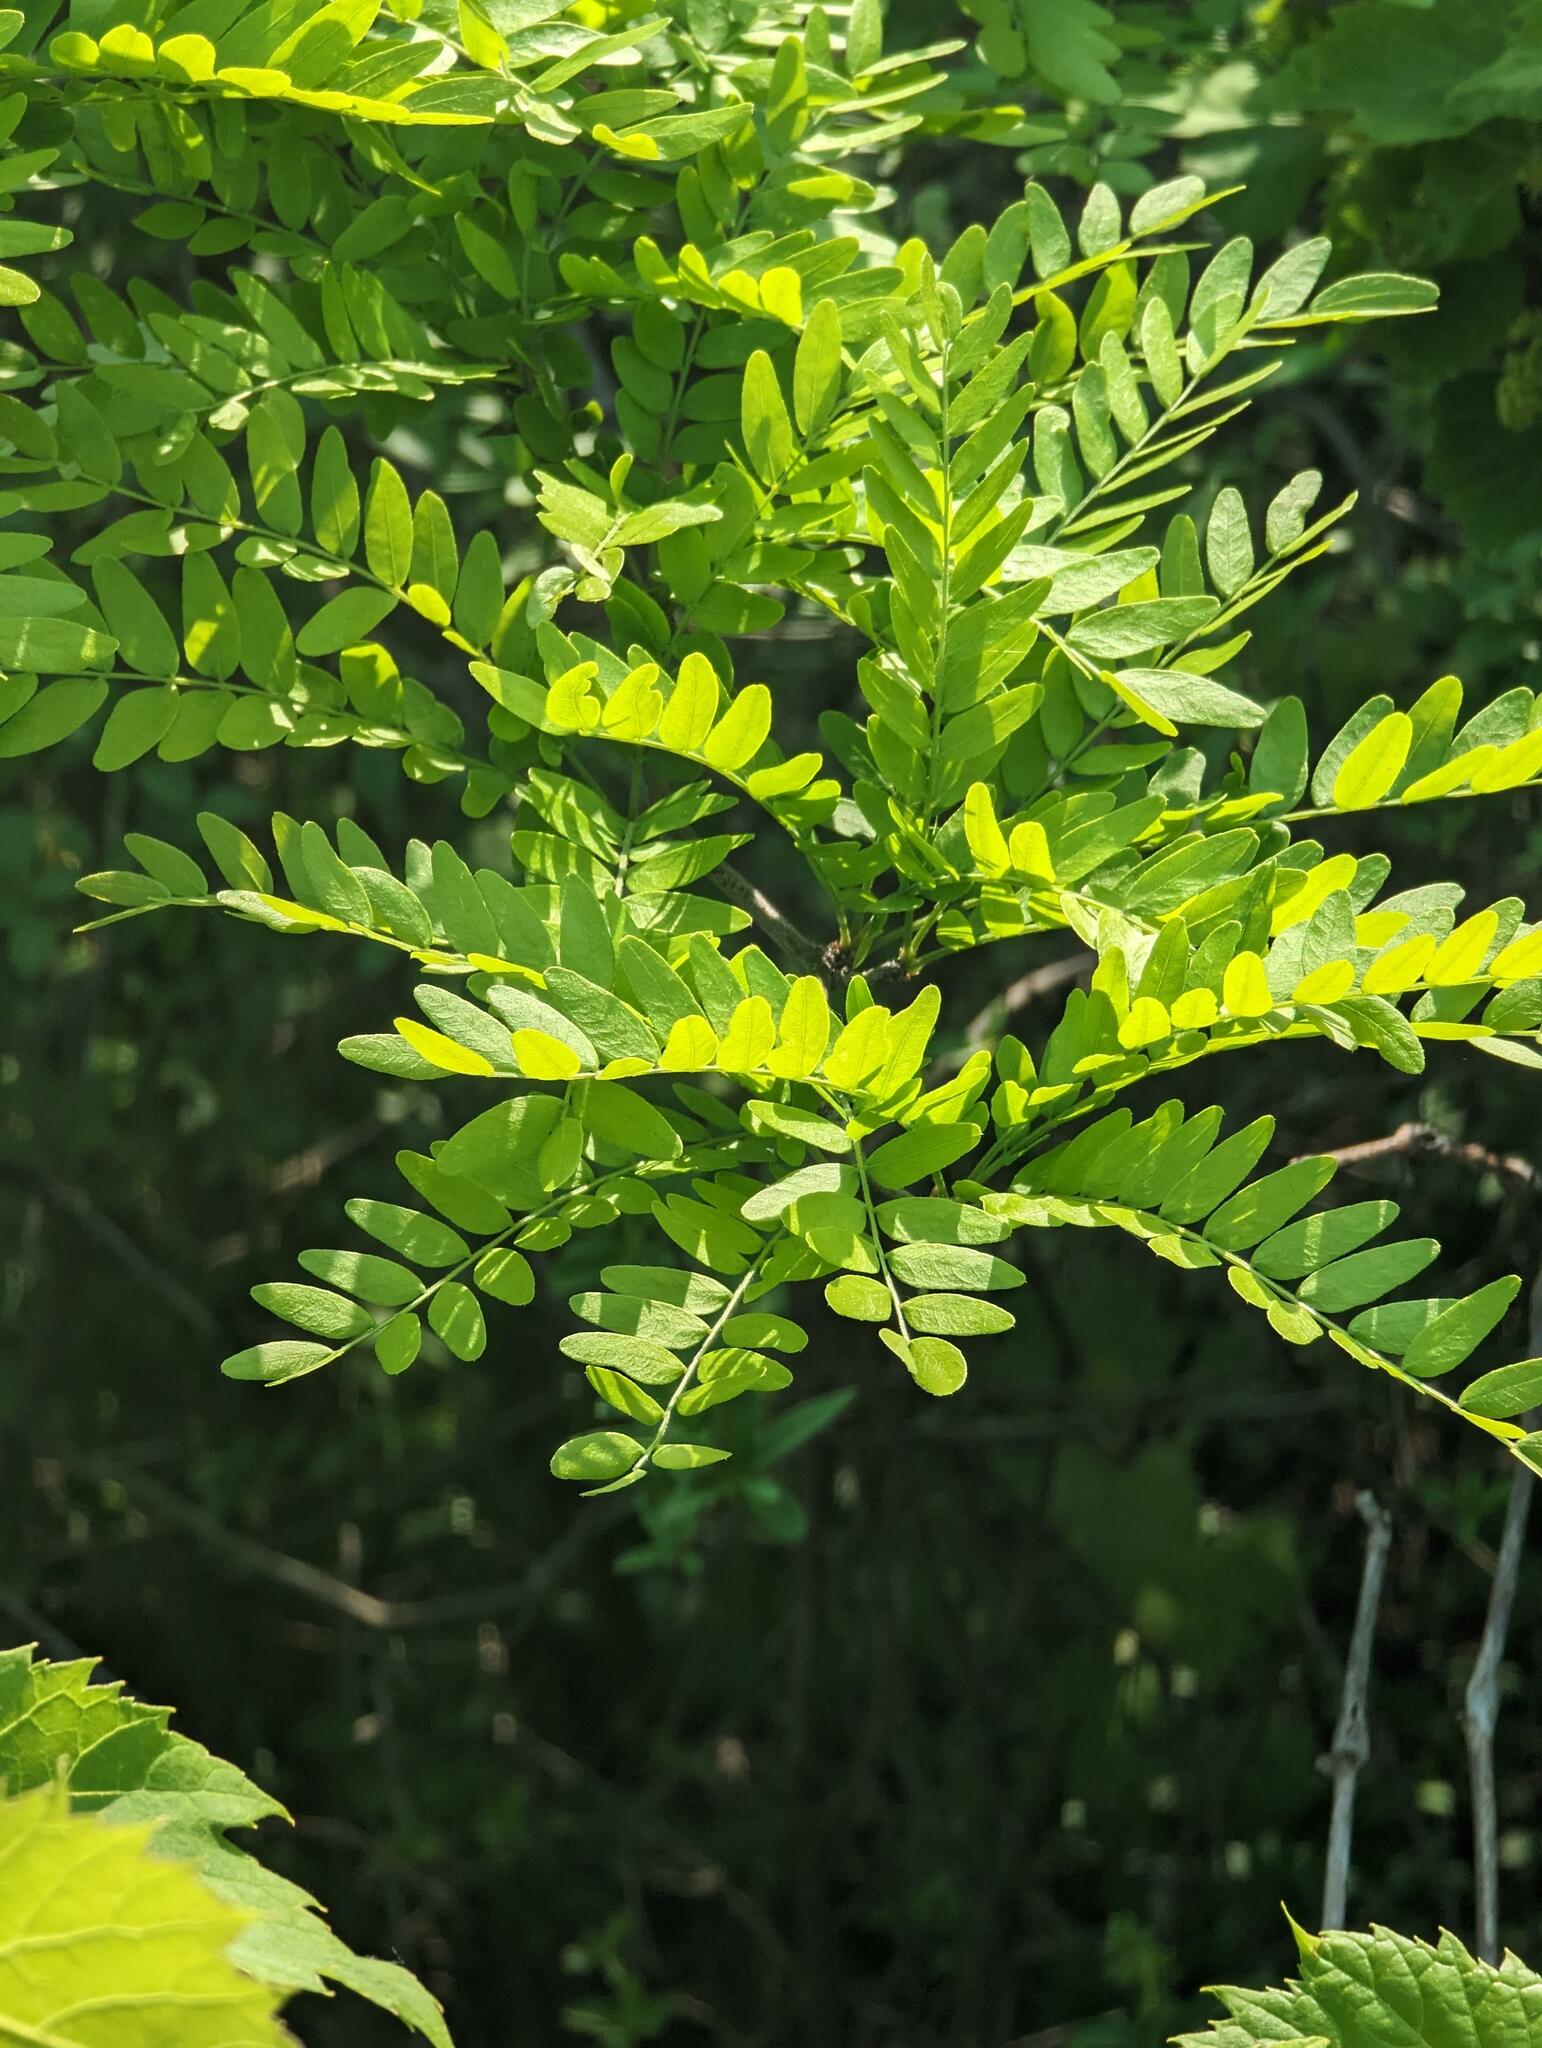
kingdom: Plantae
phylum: Tracheophyta
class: Magnoliopsida
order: Fabales
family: Fabaceae
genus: Gleditsia
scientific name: Gleditsia triacanthos
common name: Common honeylocust
